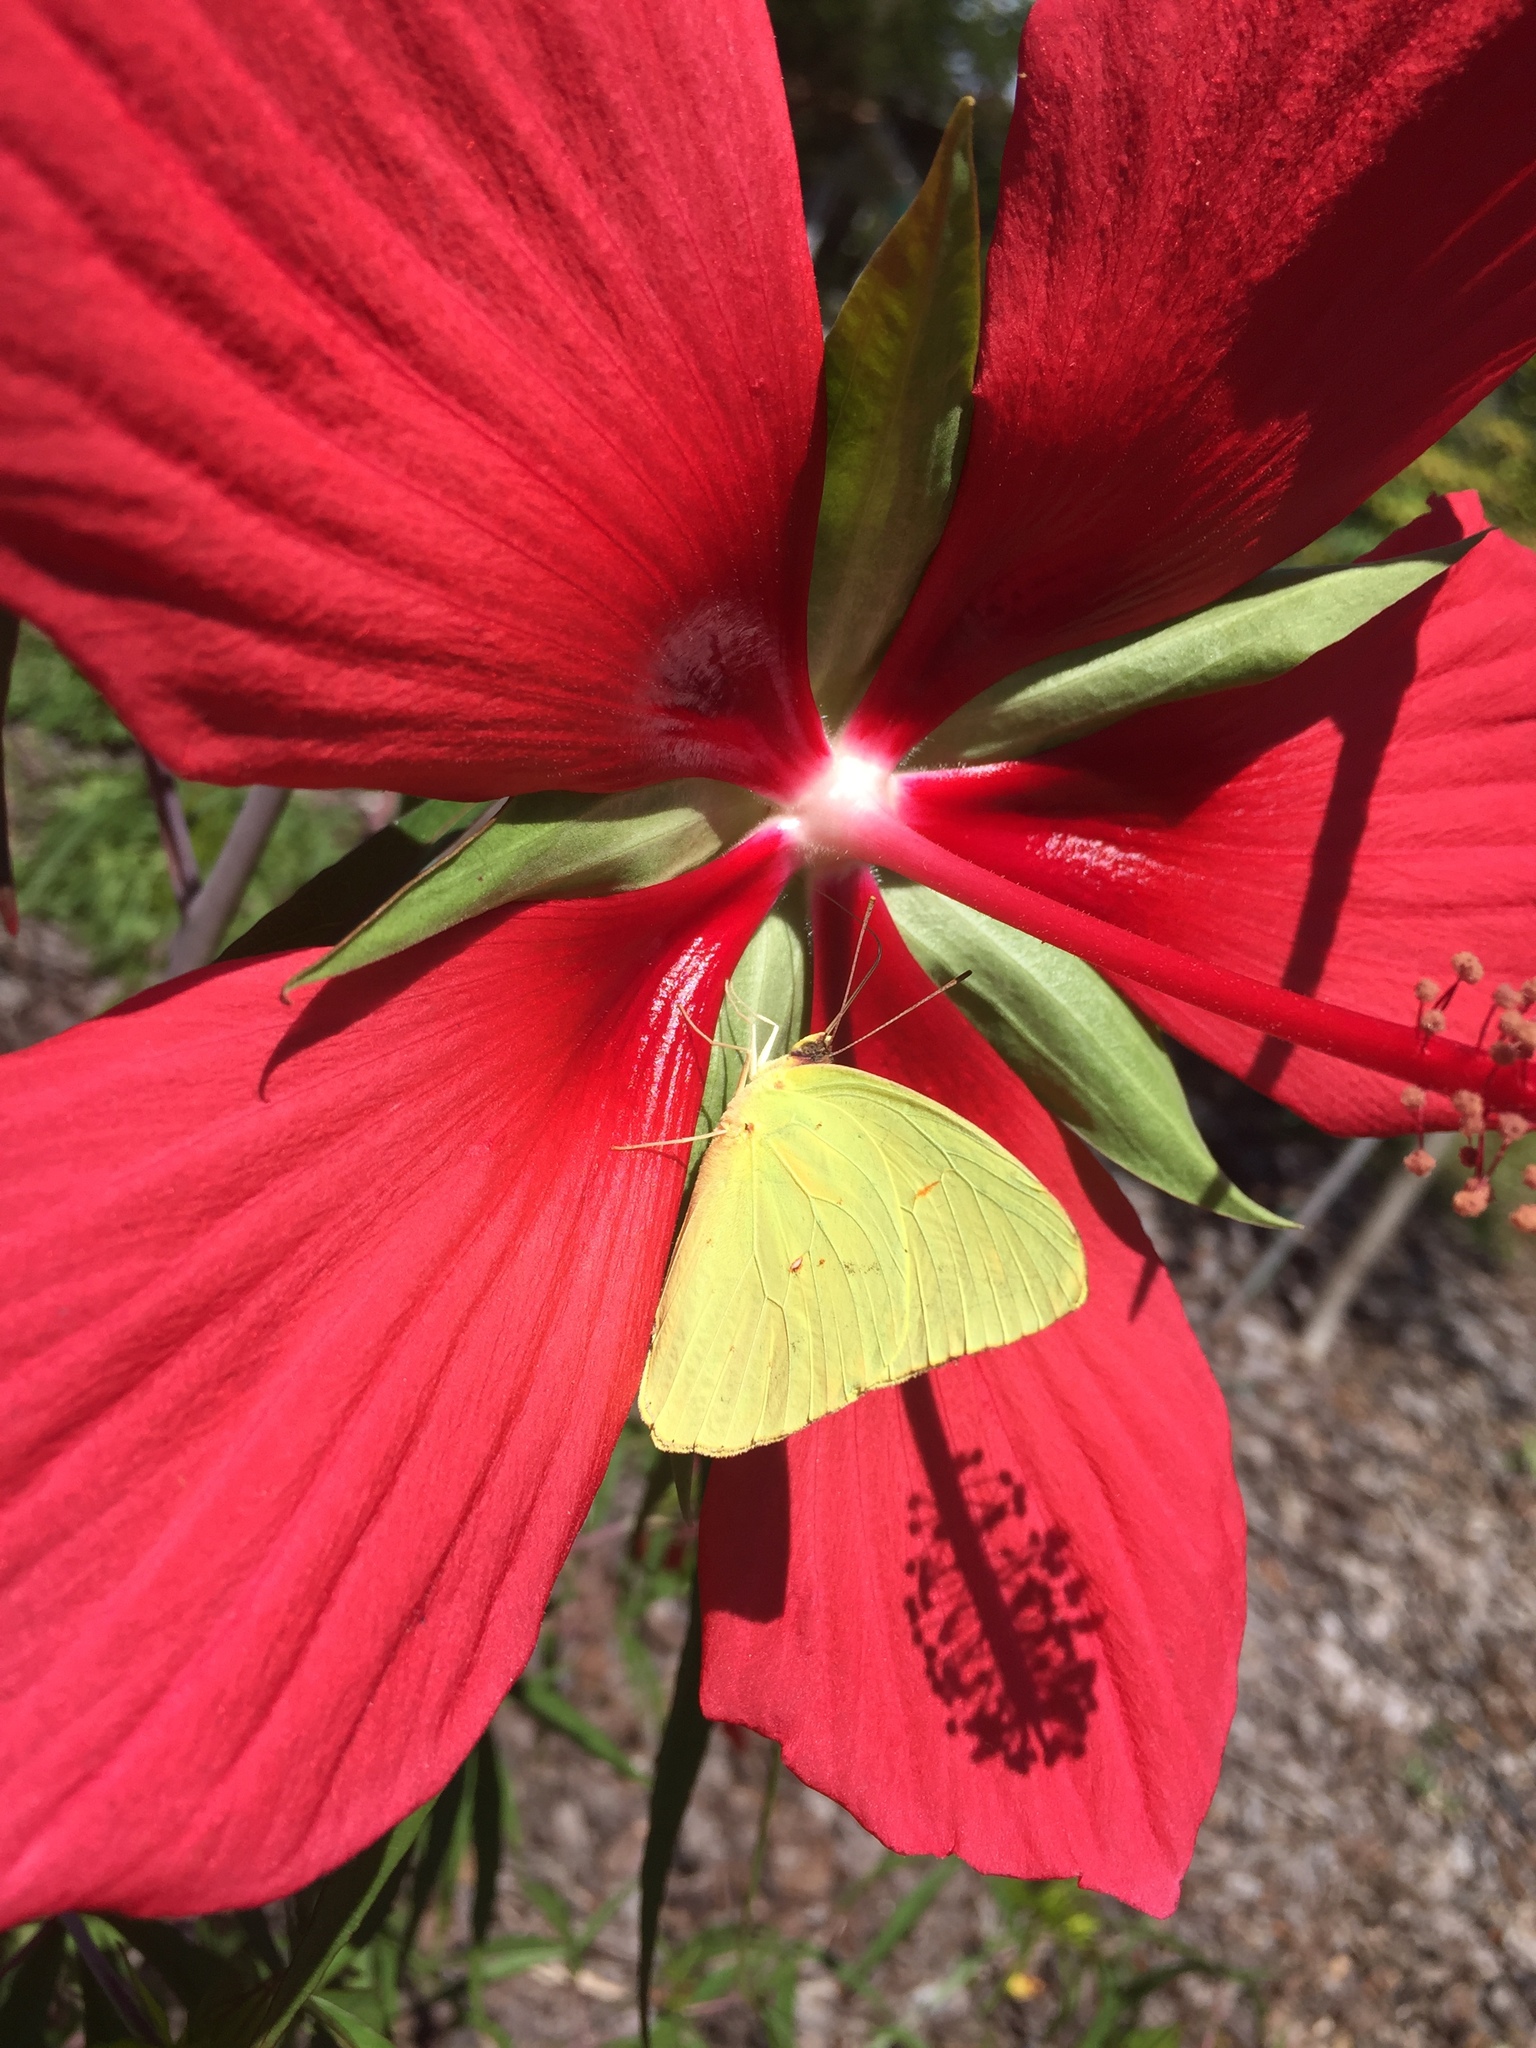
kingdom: Animalia
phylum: Arthropoda
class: Insecta
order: Lepidoptera
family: Pieridae
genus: Phoebis
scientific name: Phoebis sennae
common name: Cloudless sulphur
